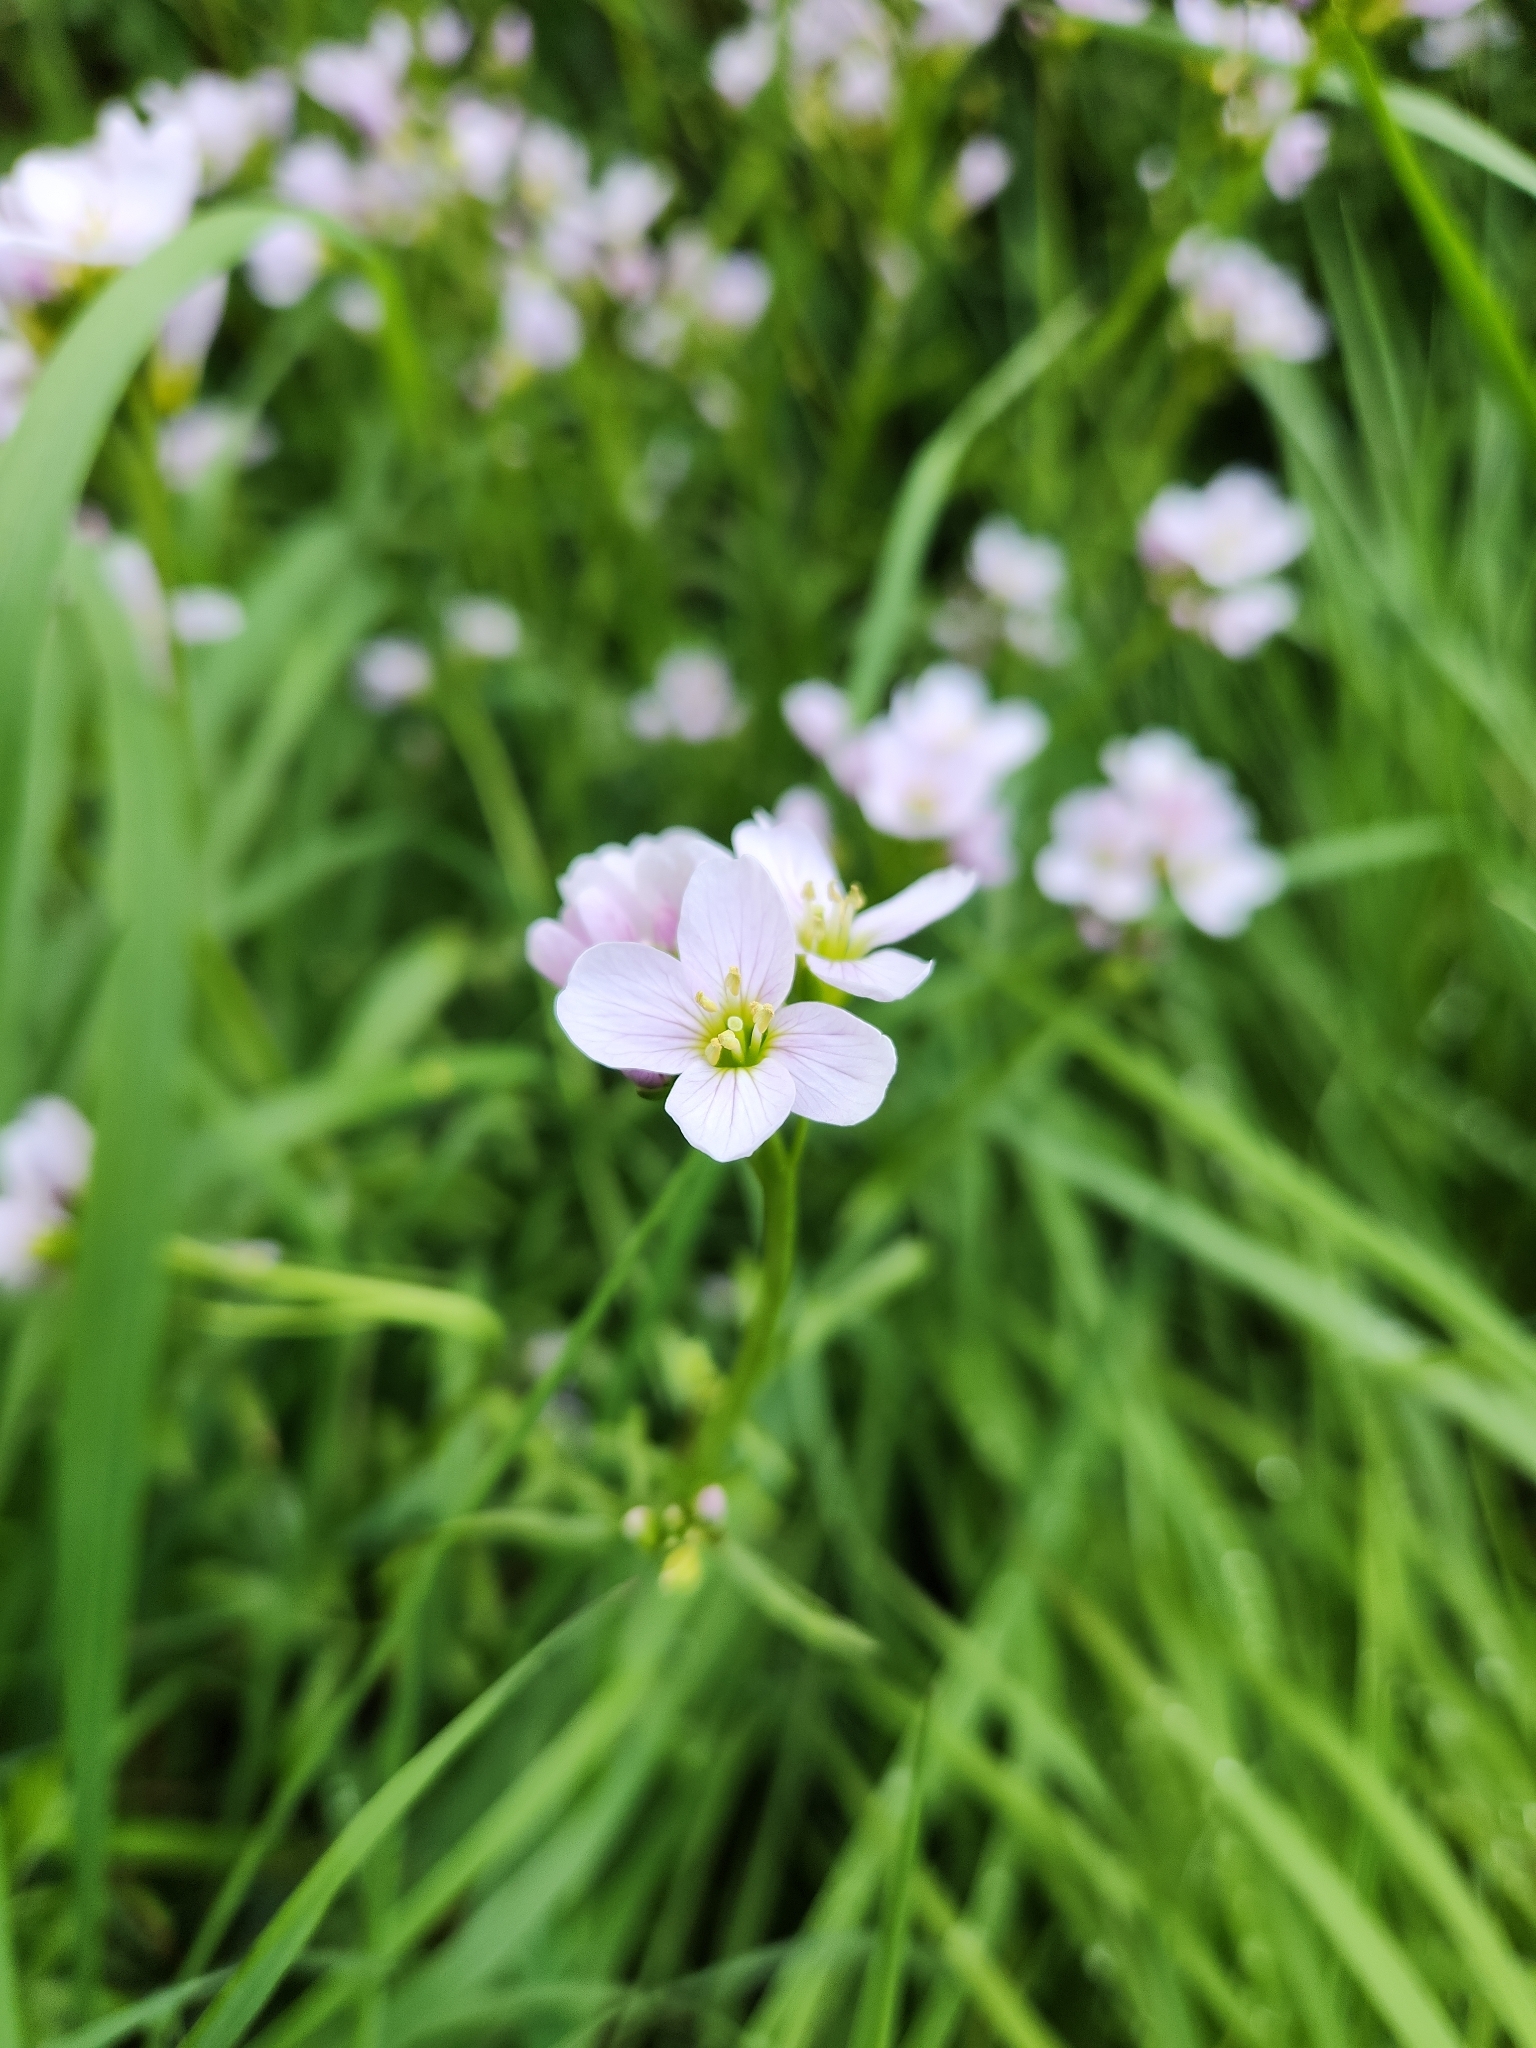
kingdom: Plantae
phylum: Tracheophyta
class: Magnoliopsida
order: Brassicales
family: Brassicaceae
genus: Cardamine
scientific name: Cardamine pratensis
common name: Cuckoo flower
